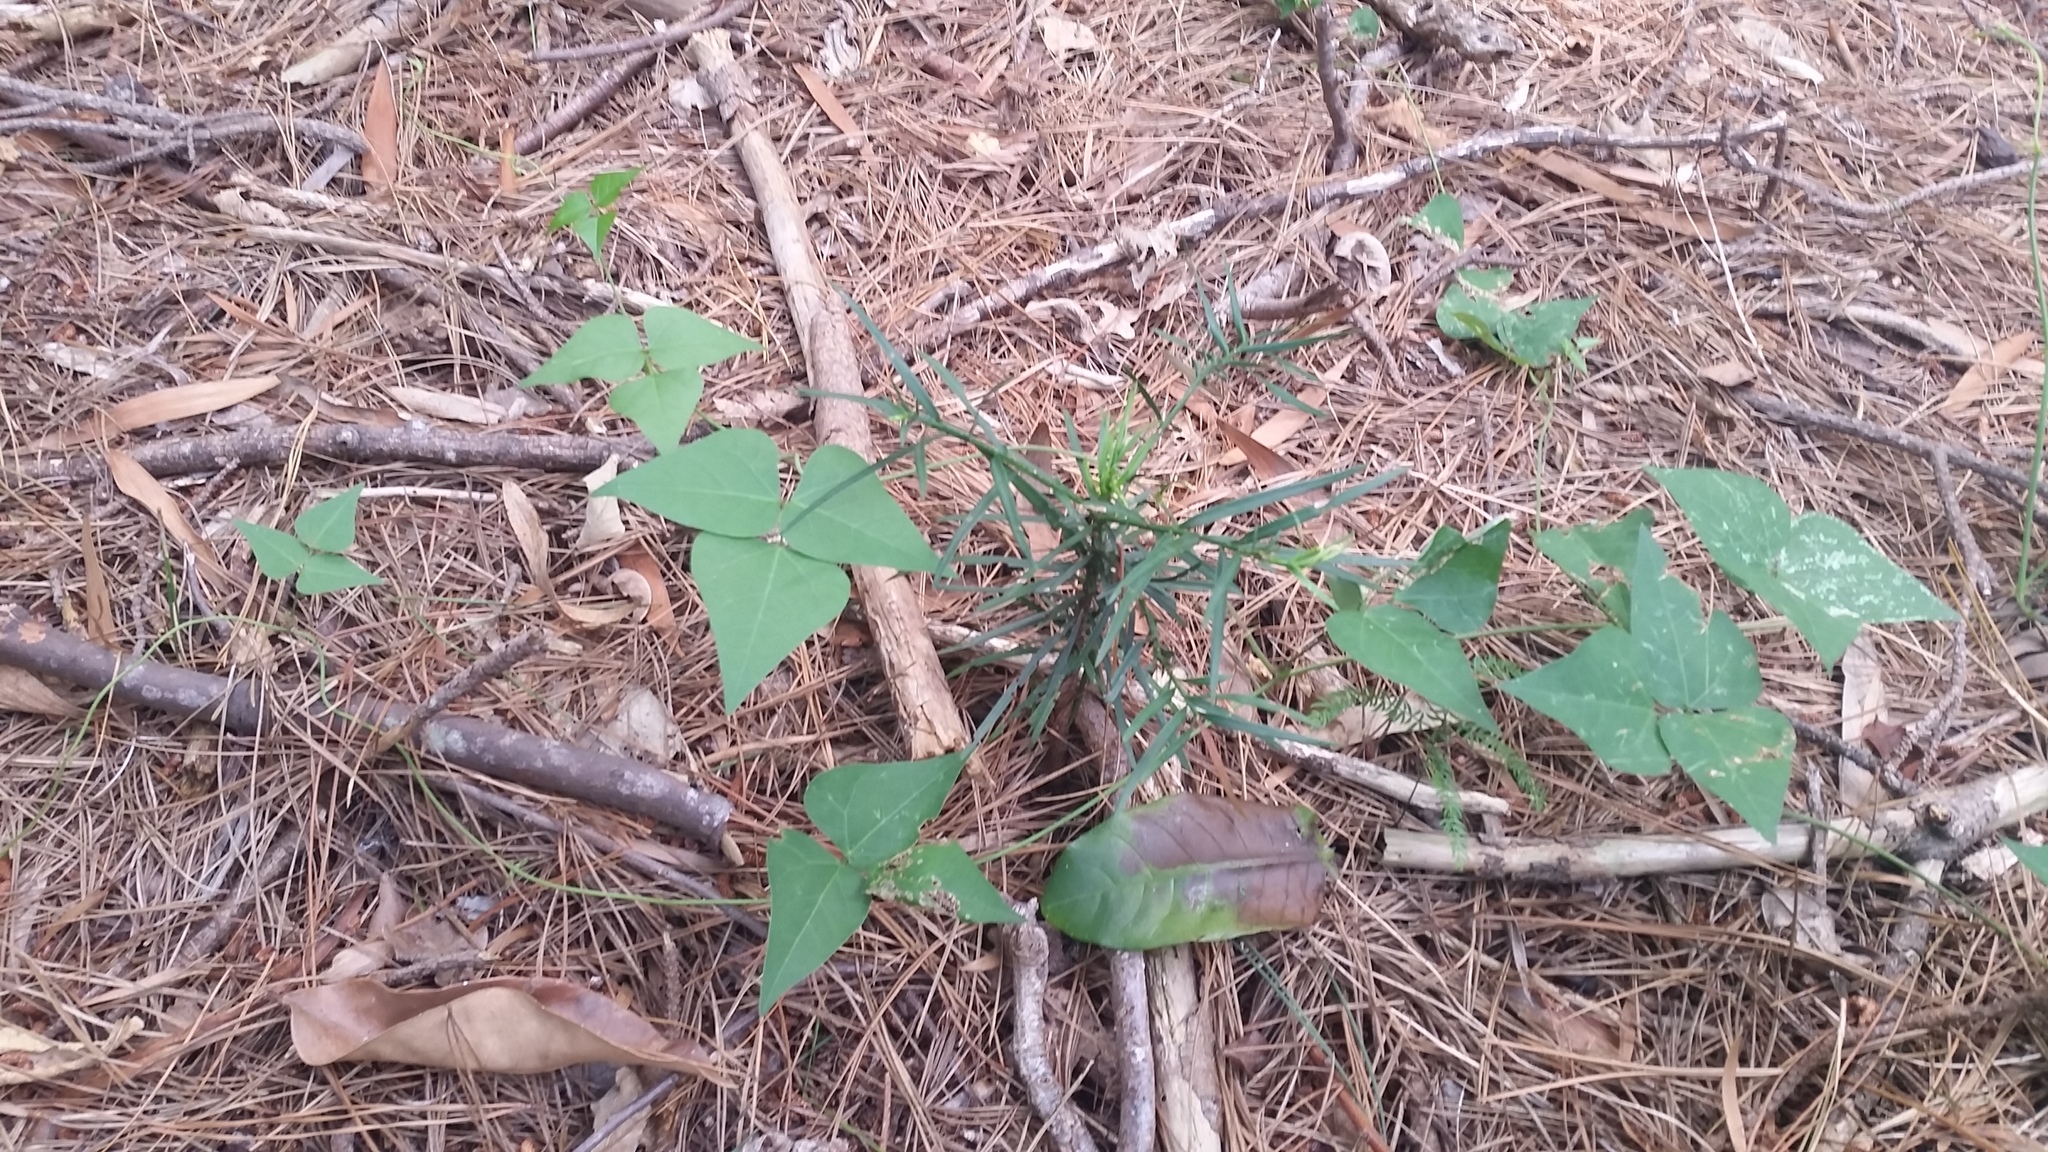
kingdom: Plantae
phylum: Tracheophyta
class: Magnoliopsida
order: Fabales
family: Fabaceae
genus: Dipogon
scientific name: Dipogon lignosus
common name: Okie bean
